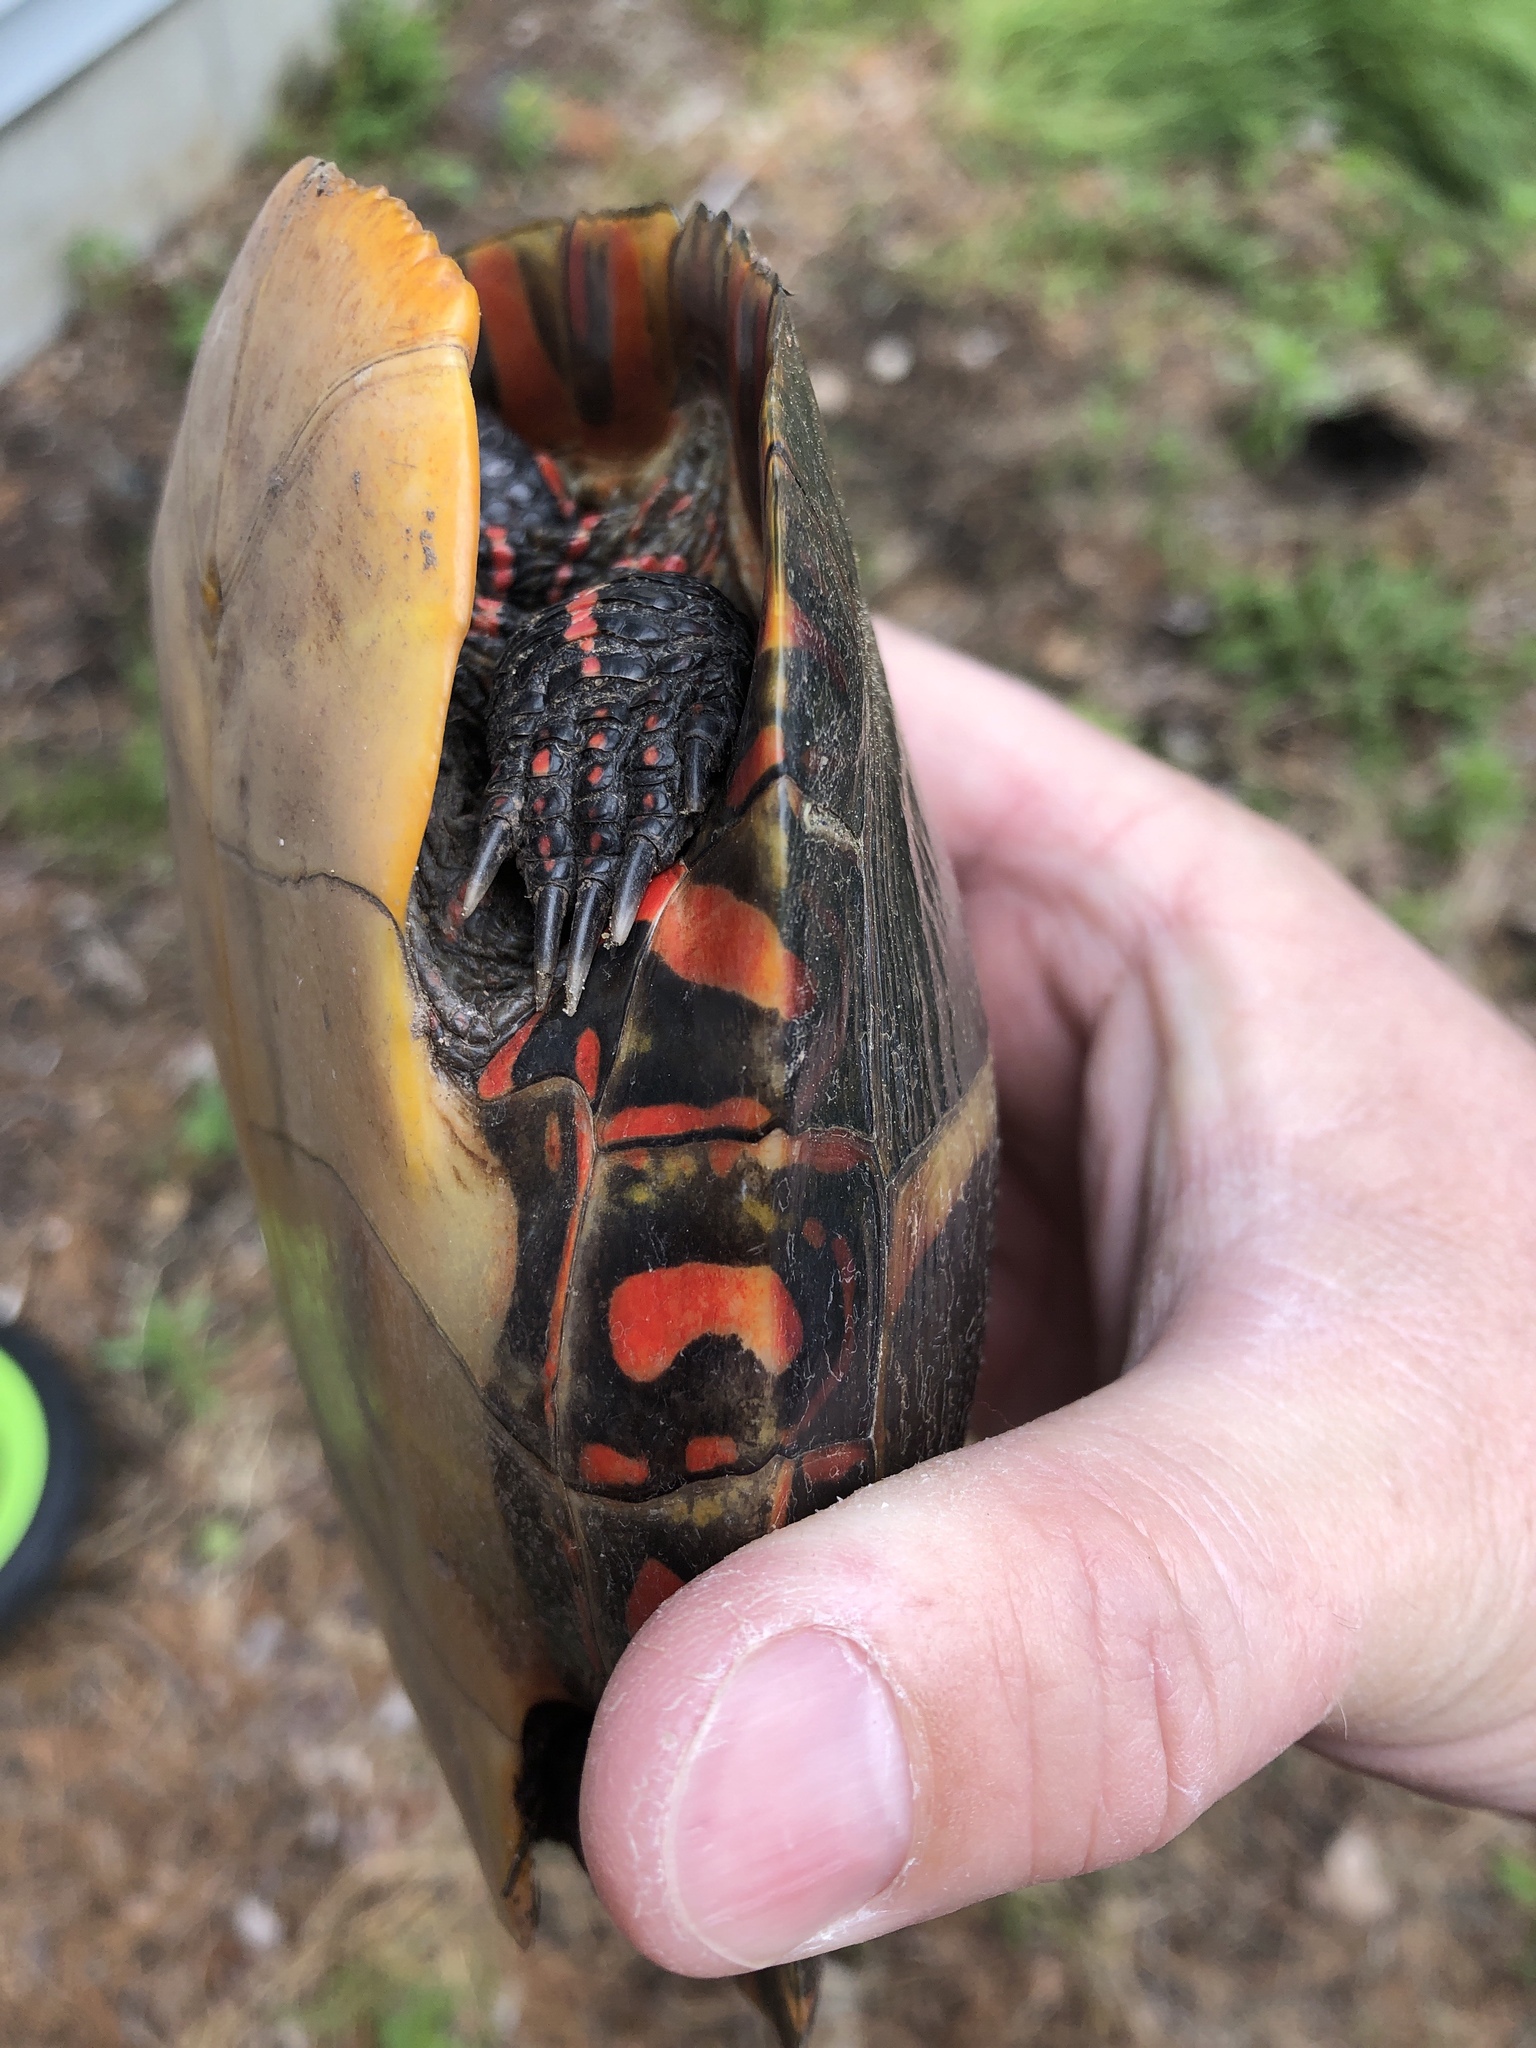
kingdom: Animalia
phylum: Chordata
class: Testudines
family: Emydidae
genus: Chrysemys
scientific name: Chrysemys picta
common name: Painted turtle
